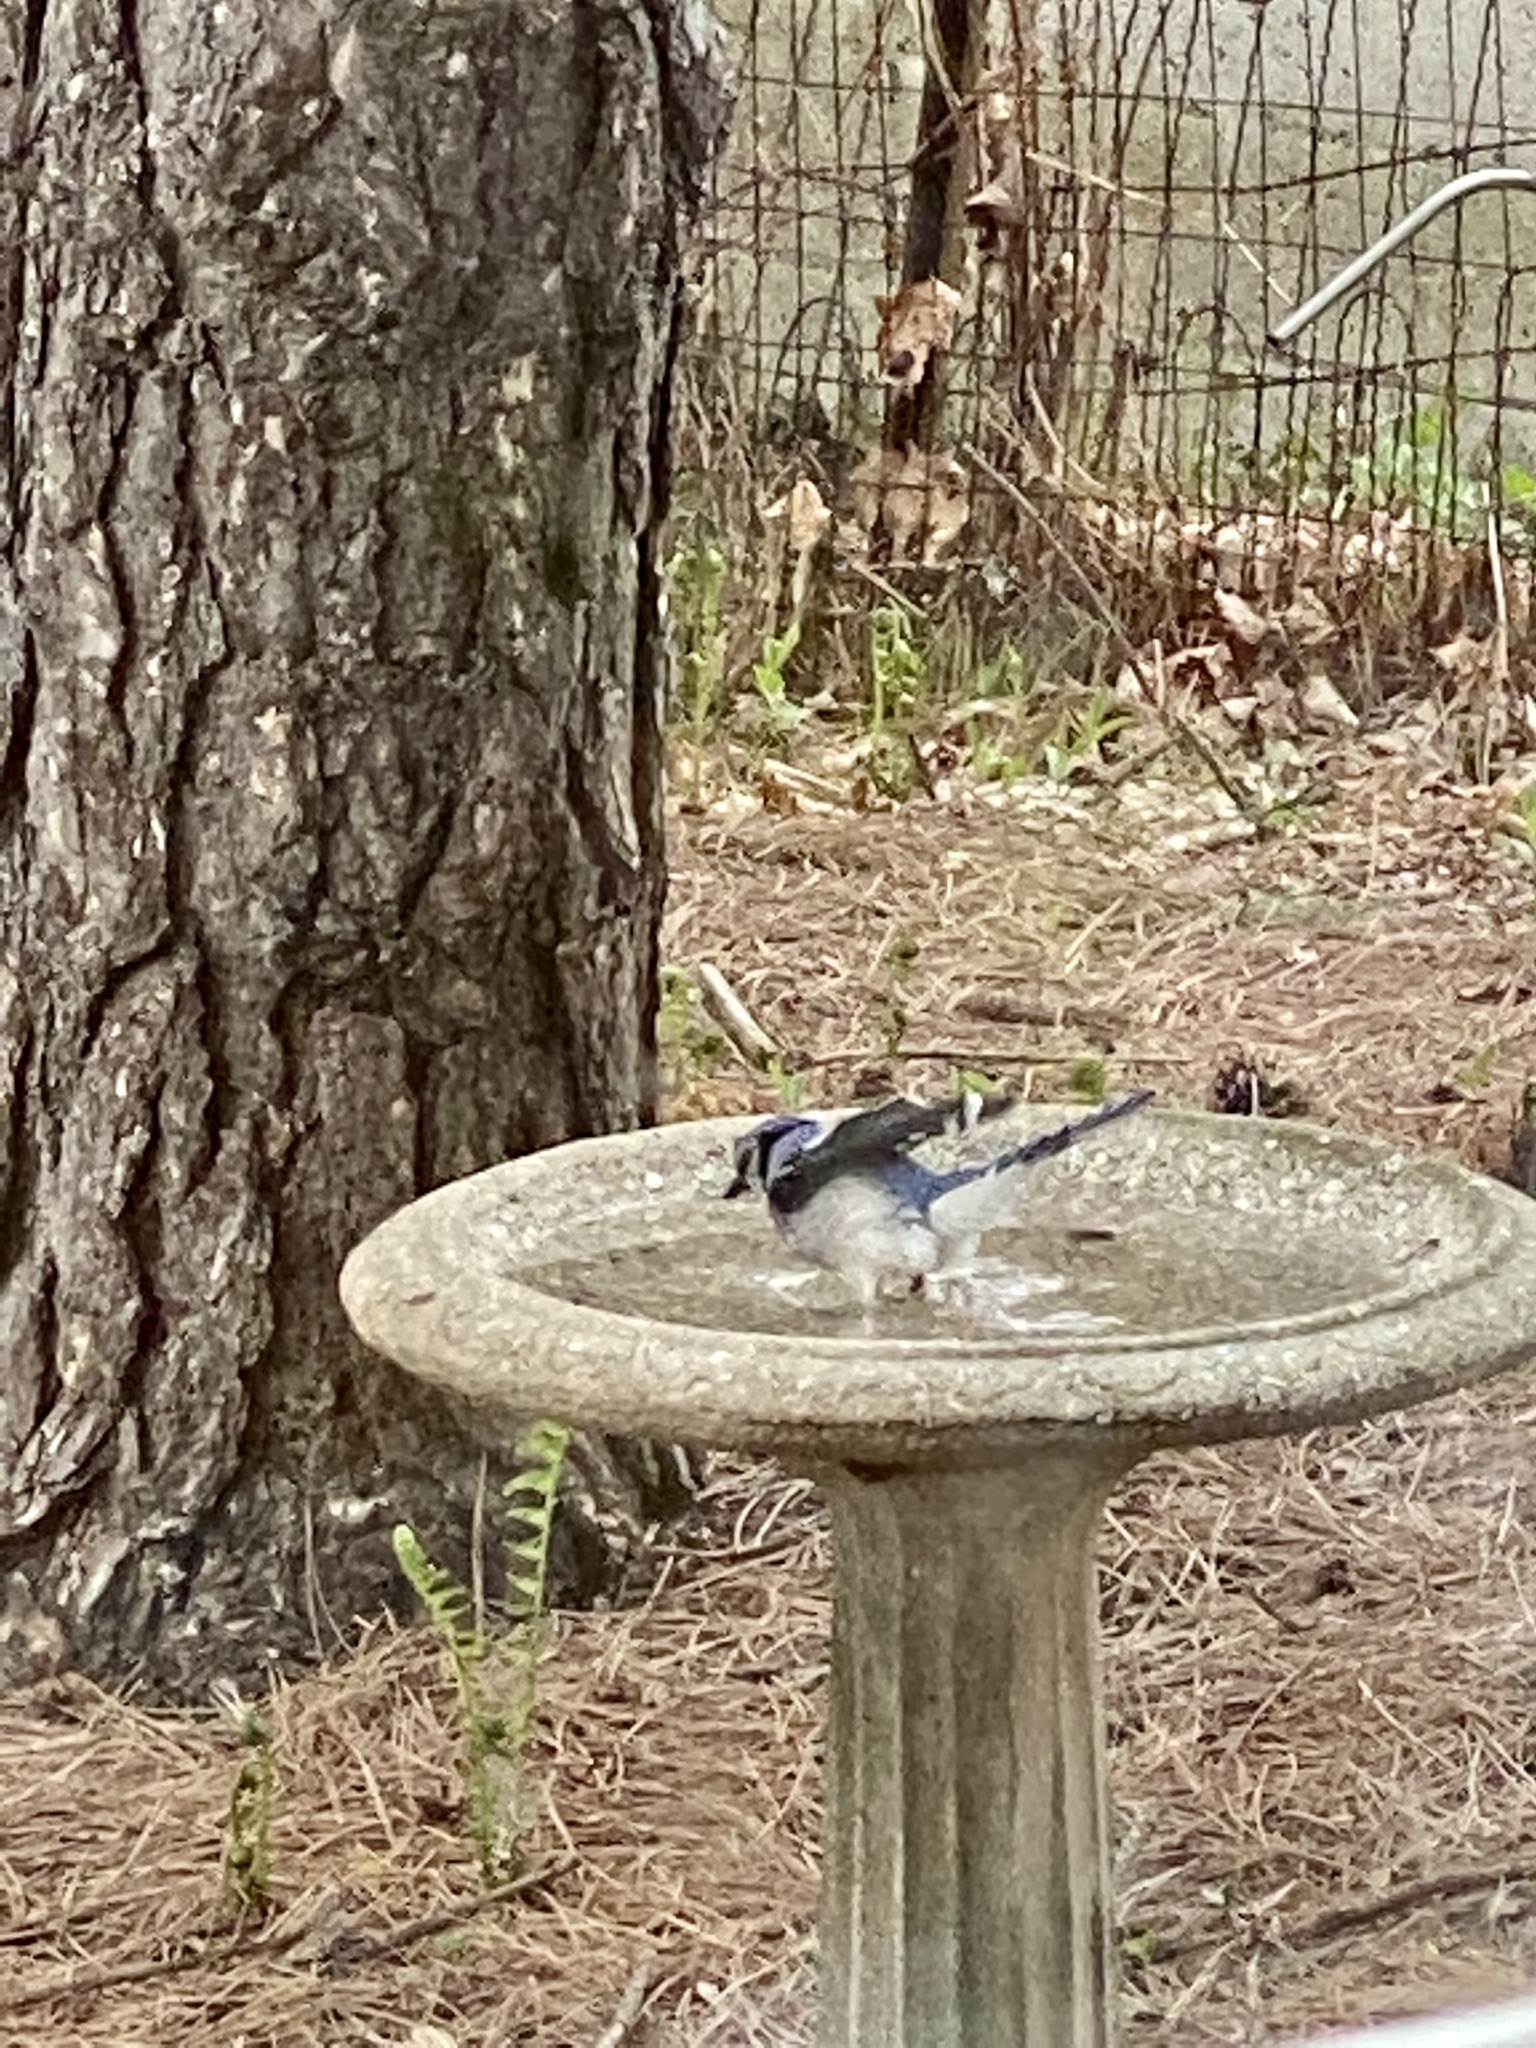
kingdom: Animalia
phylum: Chordata
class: Aves
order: Passeriformes
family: Corvidae
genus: Cyanocitta
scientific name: Cyanocitta cristata
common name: Blue jay
